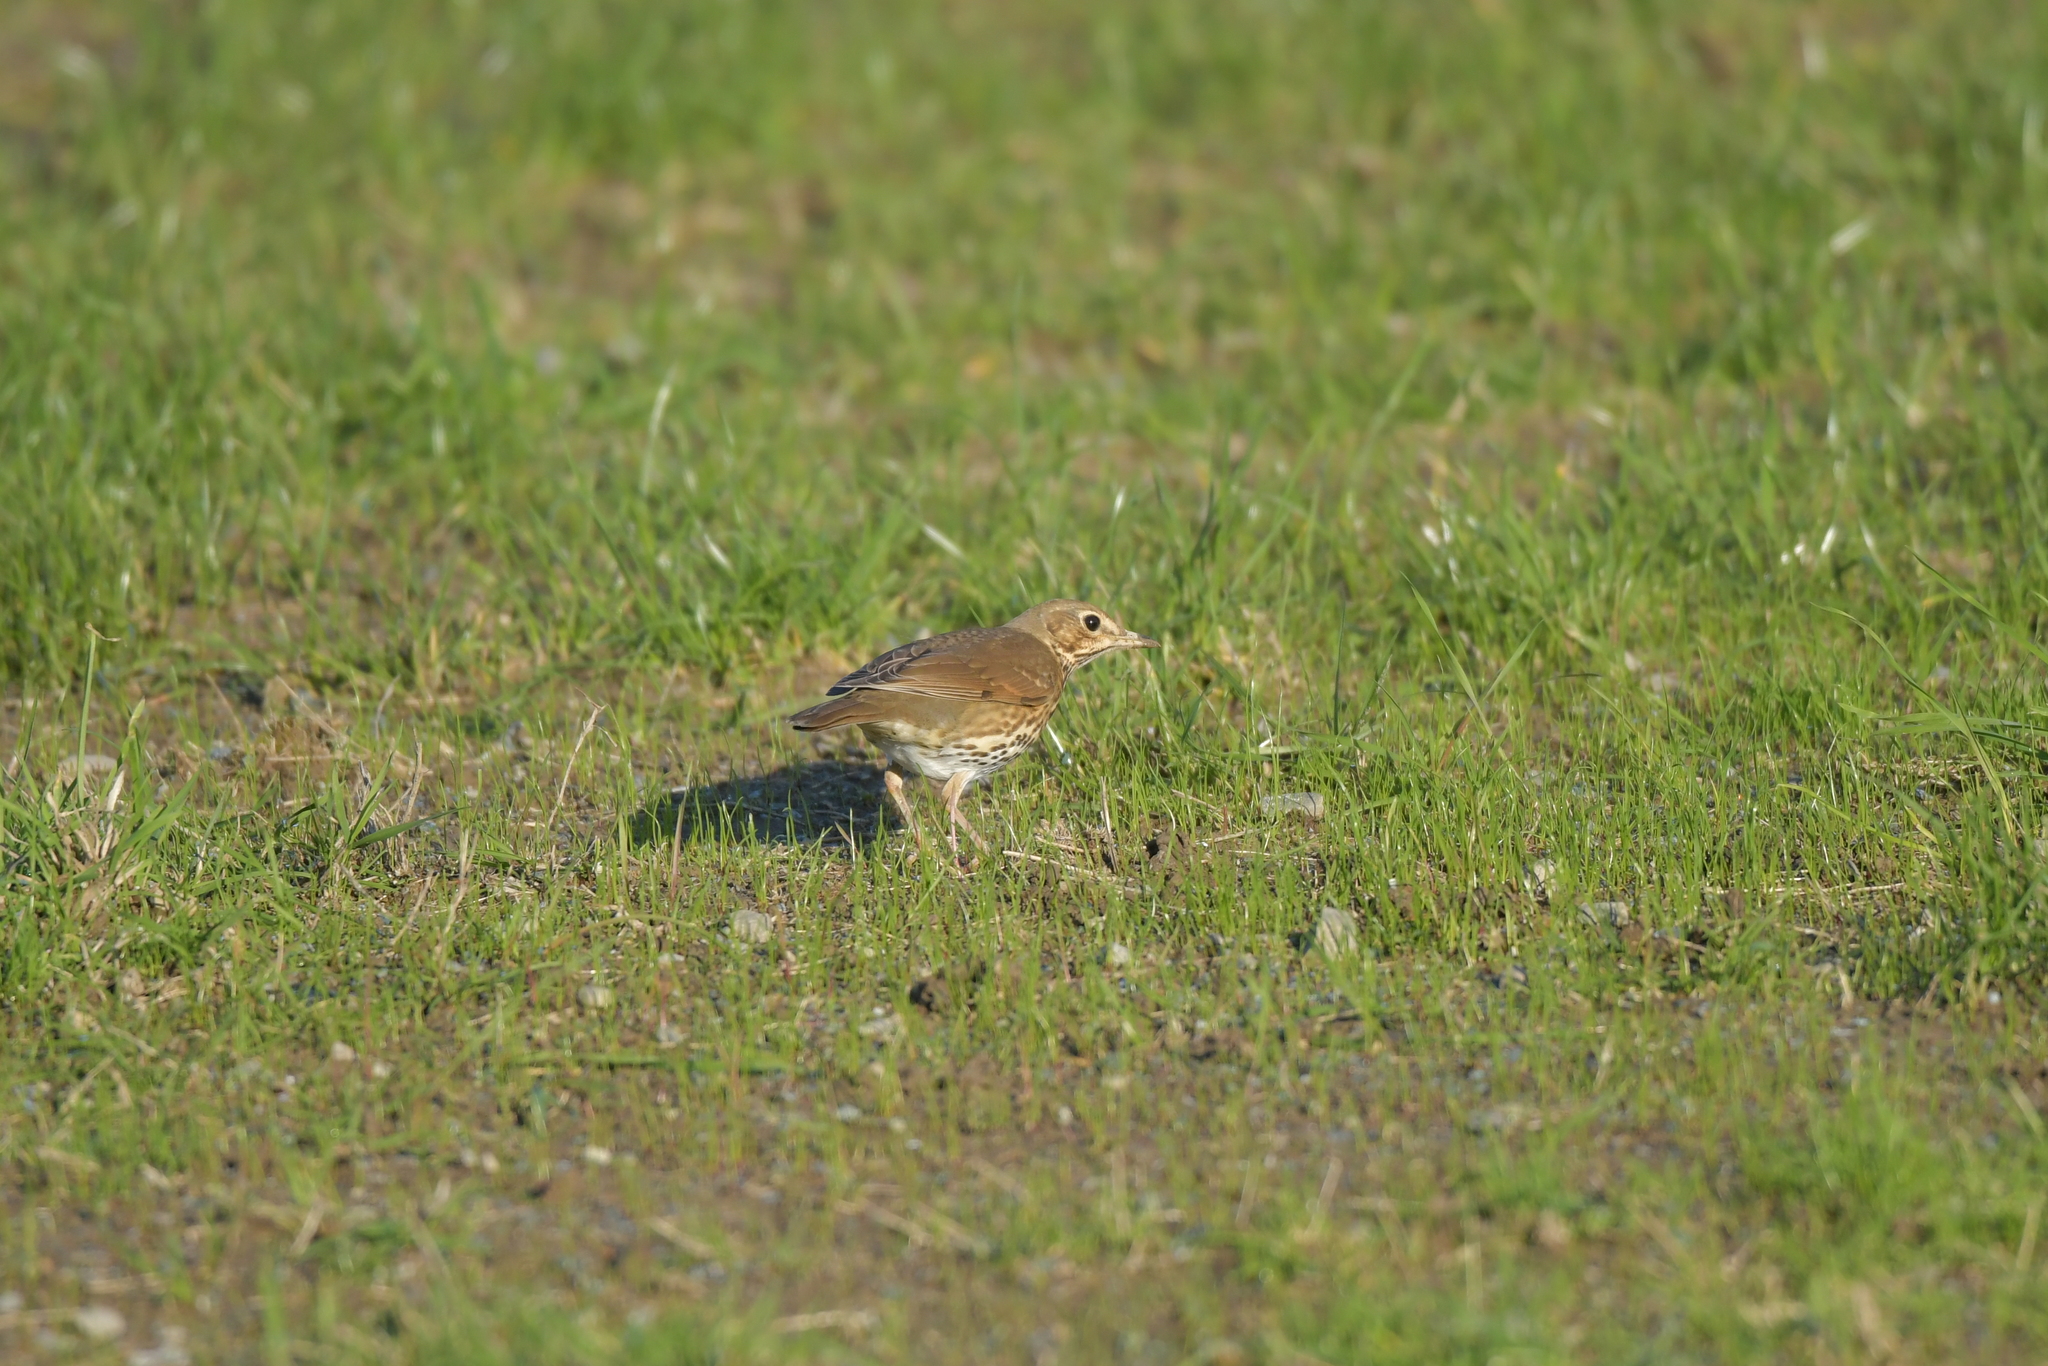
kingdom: Animalia
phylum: Chordata
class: Aves
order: Passeriformes
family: Turdidae
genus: Turdus
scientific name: Turdus philomelos
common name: Song thrush
